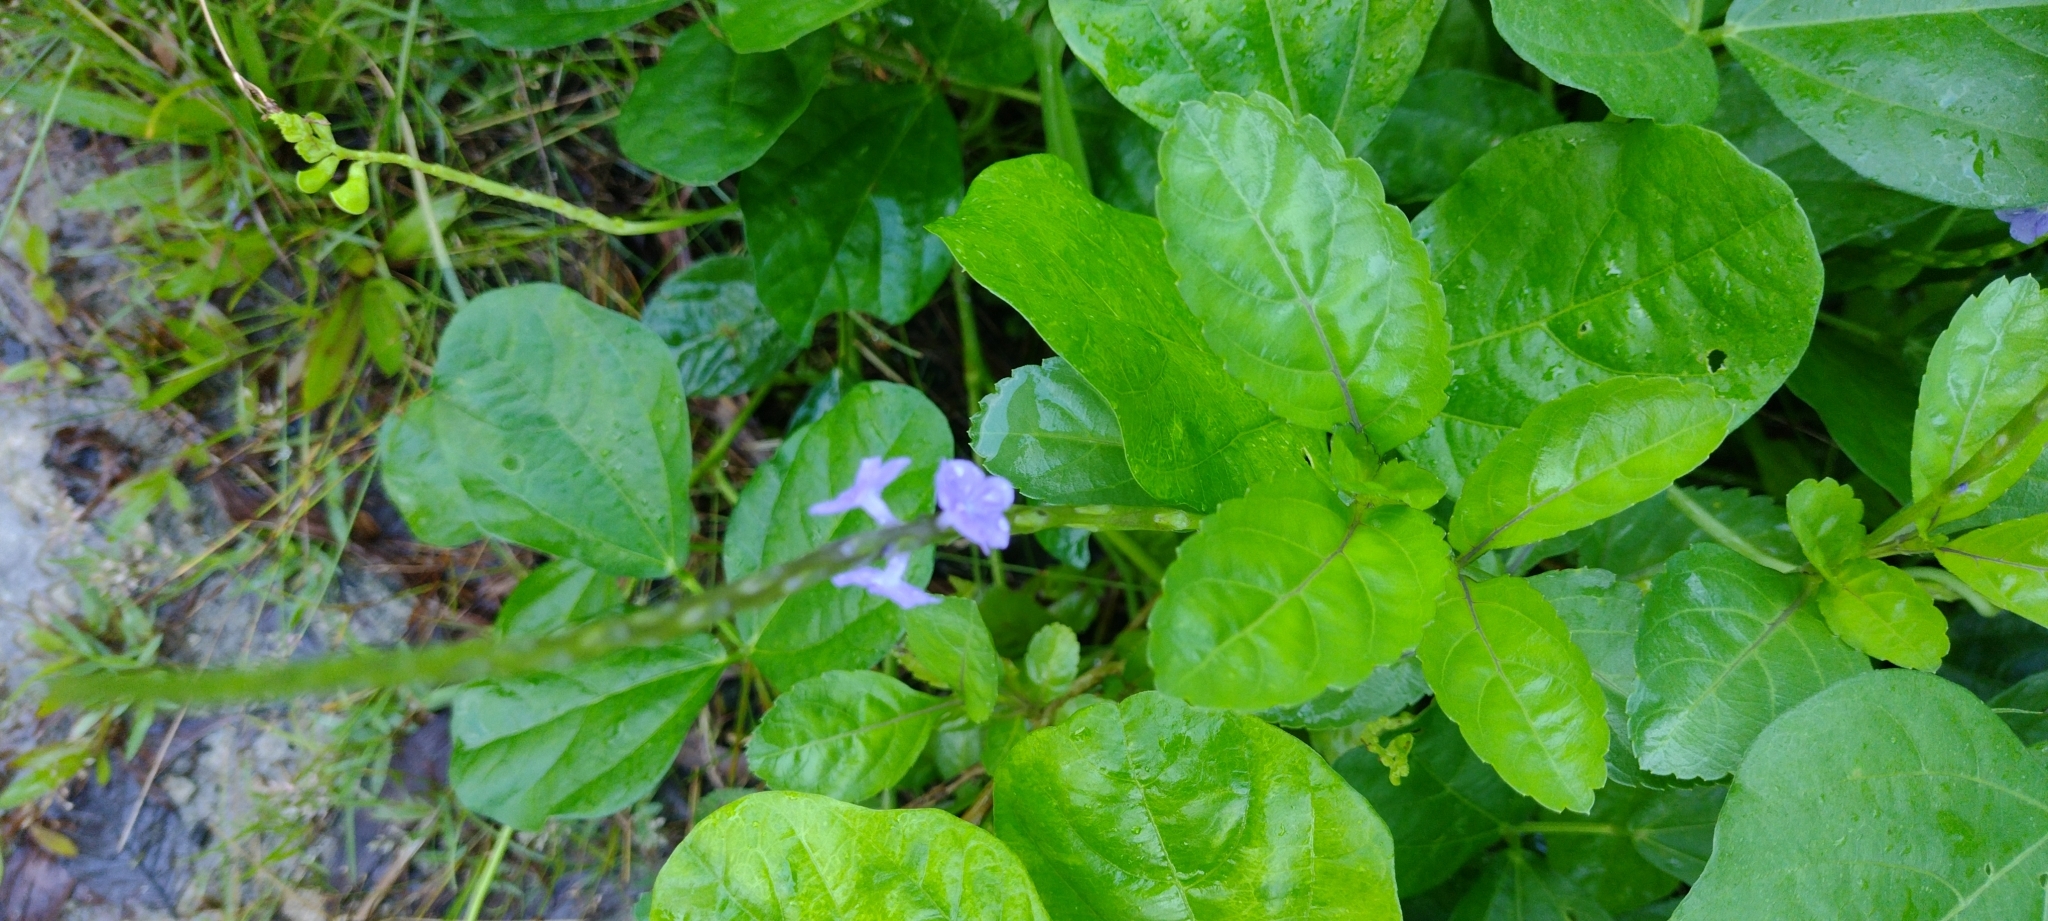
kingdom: Plantae
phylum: Tracheophyta
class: Magnoliopsida
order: Lamiales
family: Verbenaceae
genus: Stachytarpheta
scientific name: Stachytarpheta jamaicensis
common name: Light-blue snakeweed
